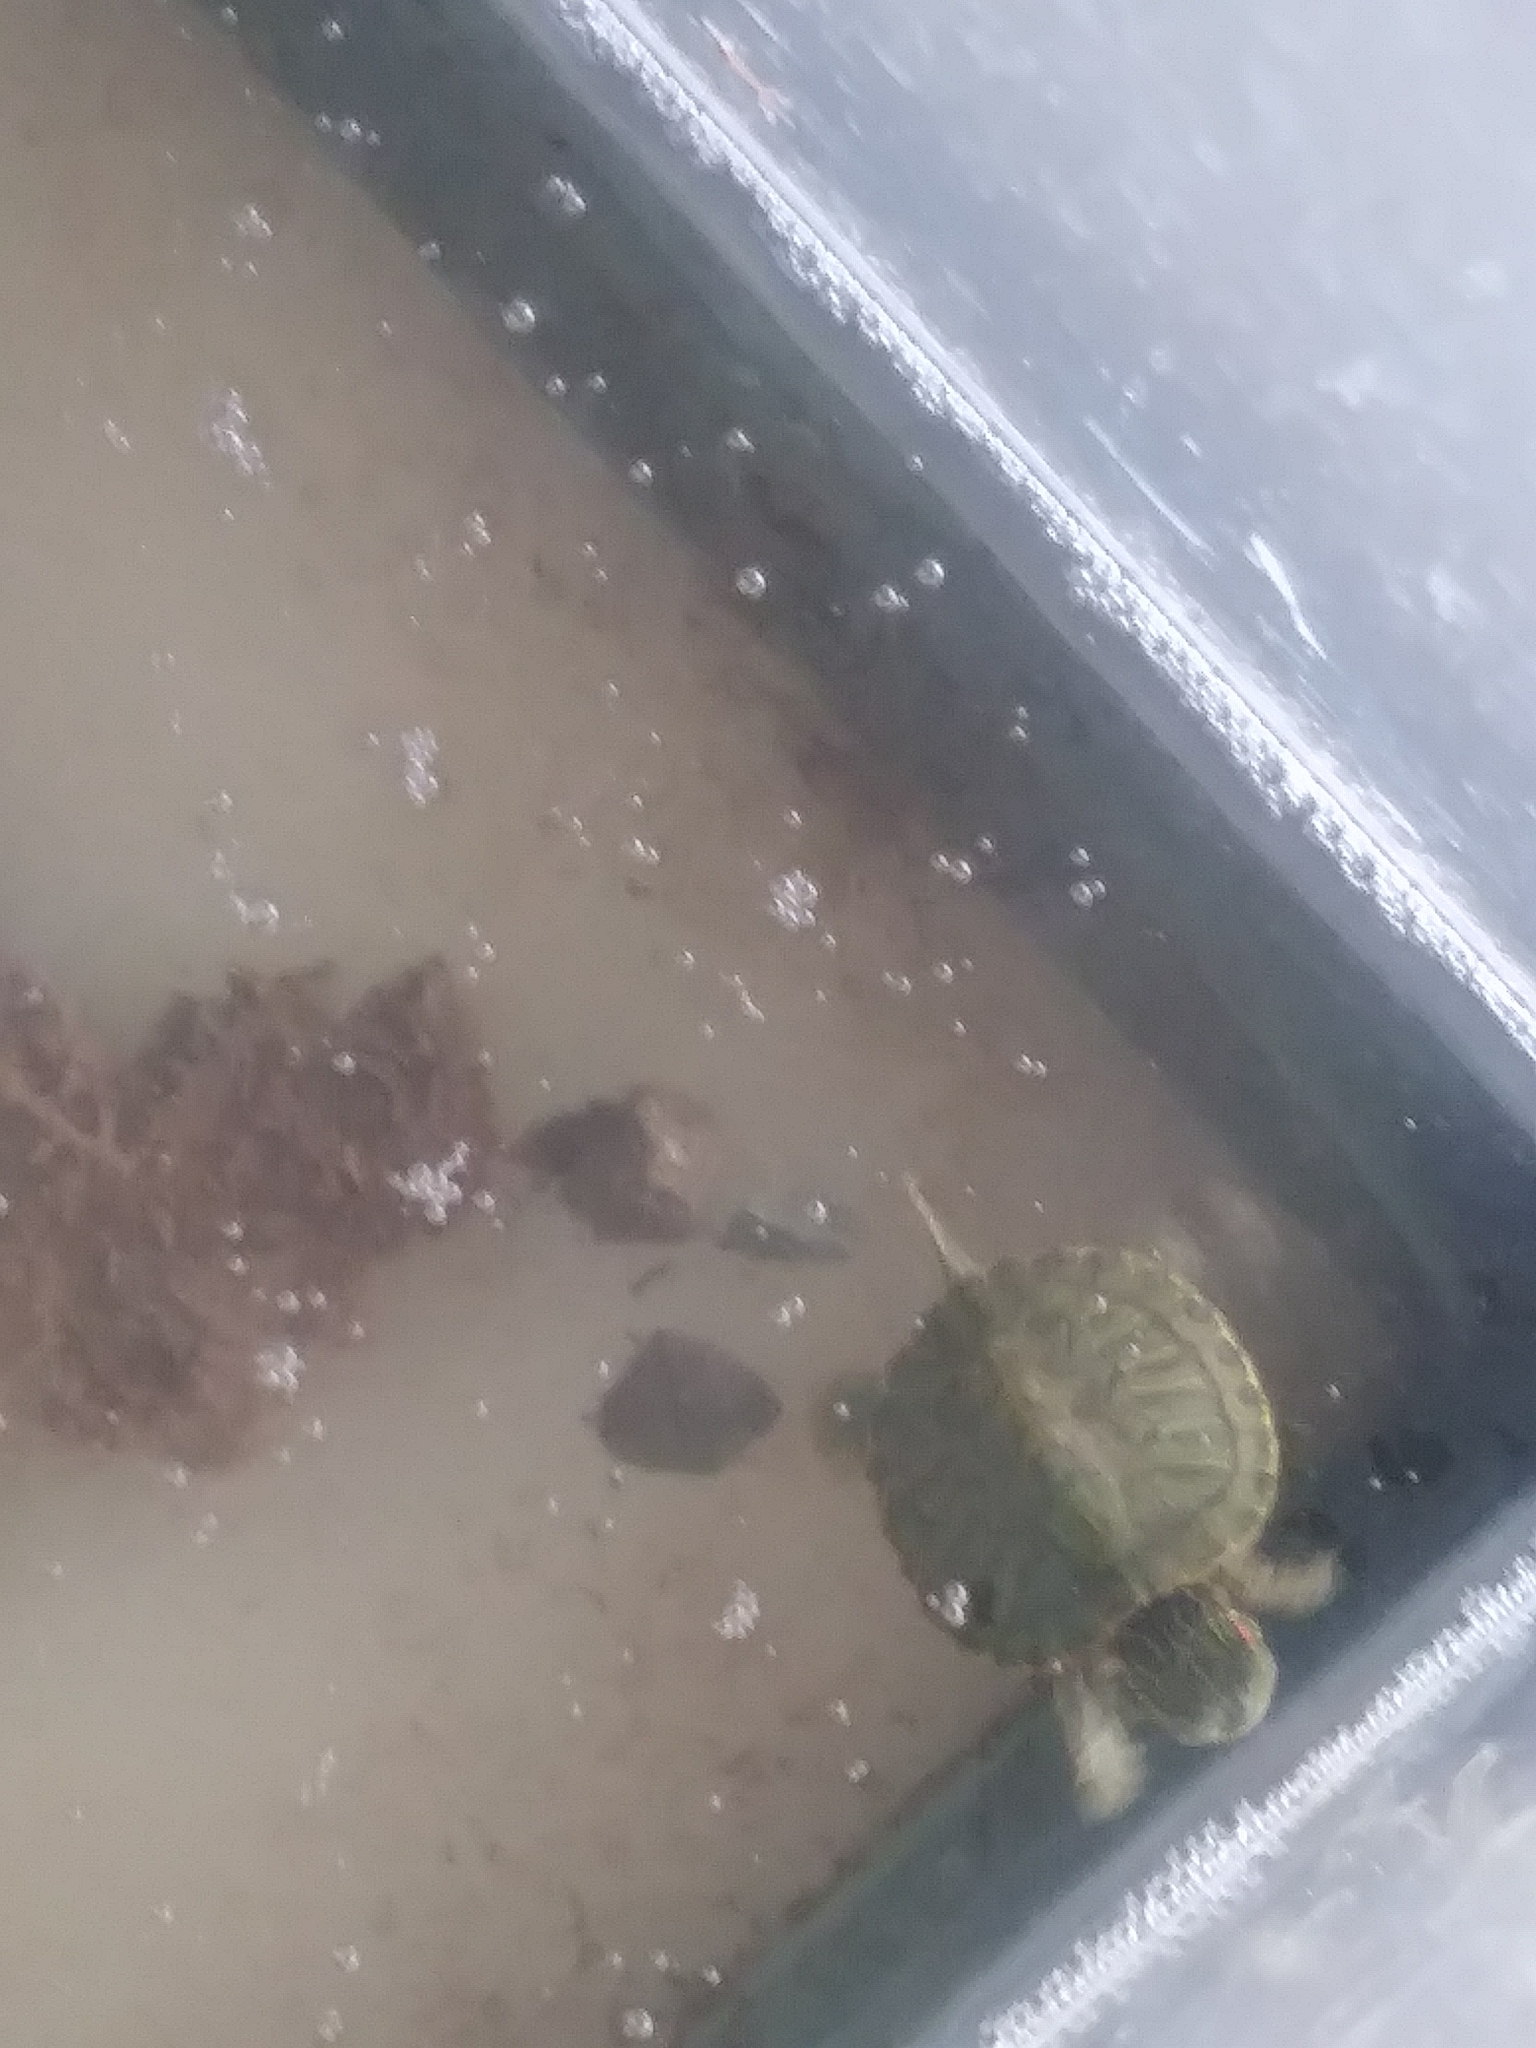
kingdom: Animalia
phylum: Chordata
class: Testudines
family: Emydidae
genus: Trachemys
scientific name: Trachemys scripta
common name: Slider
